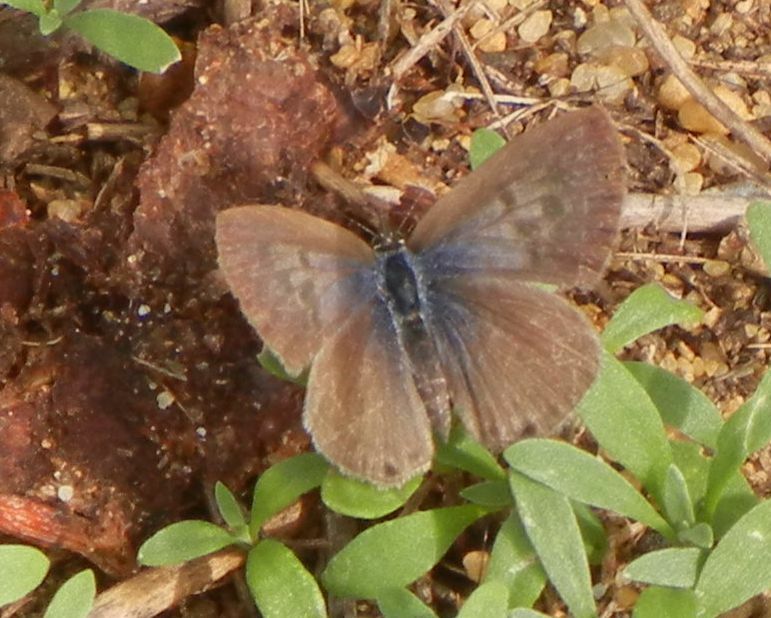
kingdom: Animalia
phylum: Arthropoda
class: Insecta
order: Lepidoptera
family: Lycaenidae
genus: Leptotes
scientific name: Leptotes pirithous
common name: Lang's short-tailed blue
